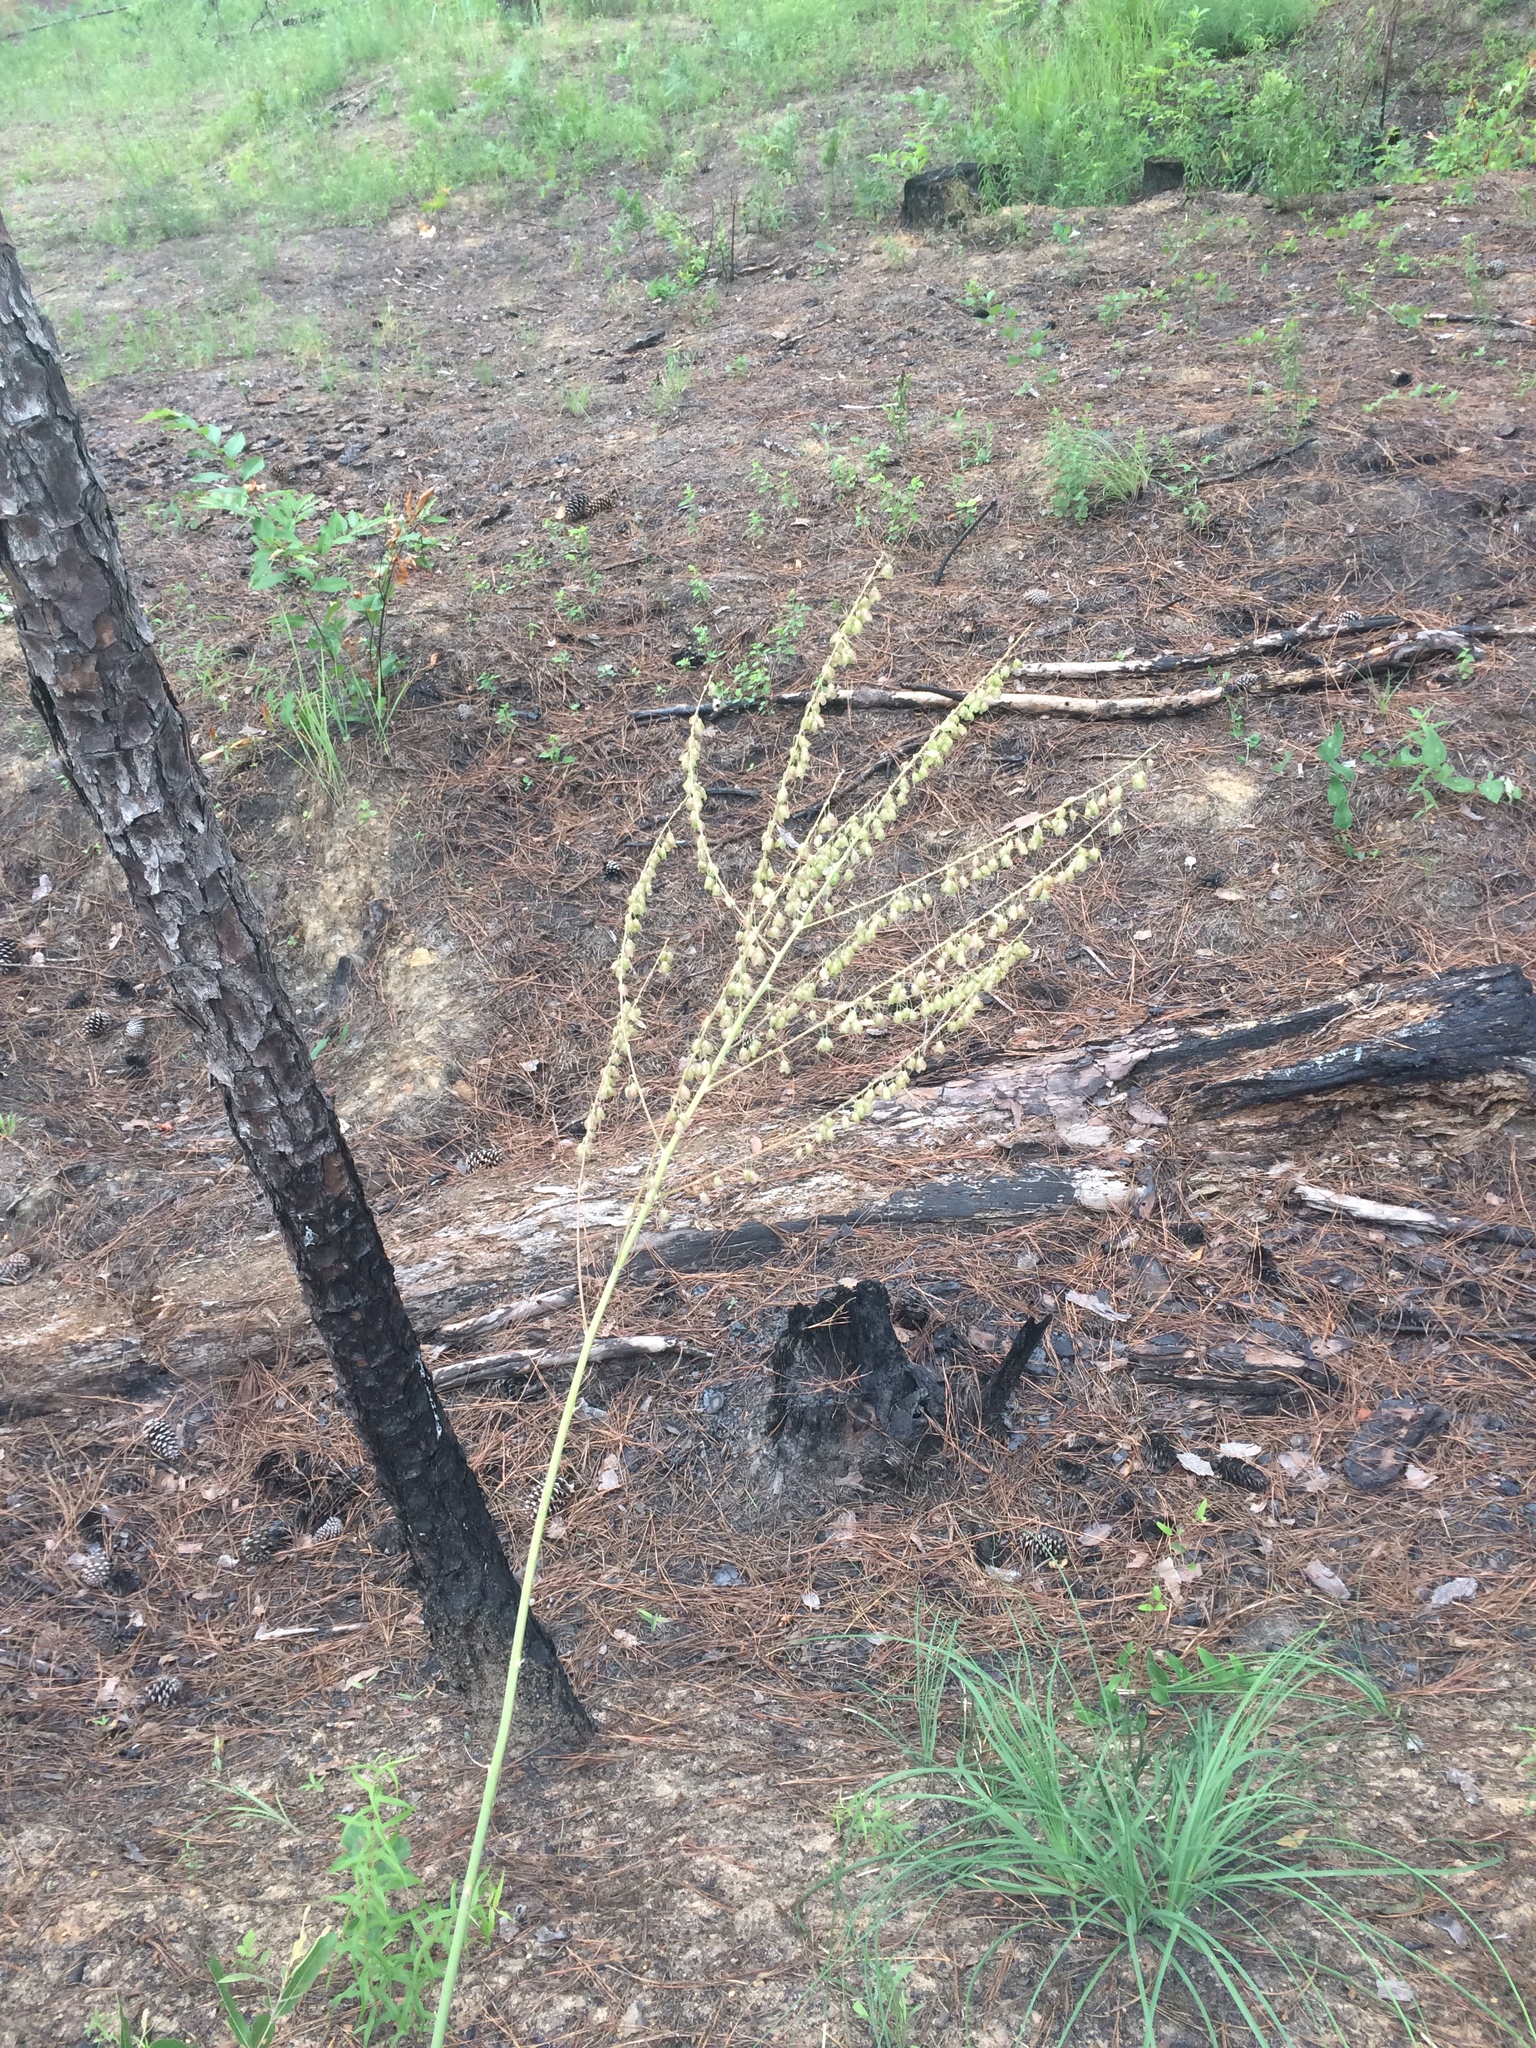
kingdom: Plantae
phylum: Tracheophyta
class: Liliopsida
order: Asparagales
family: Asparagaceae
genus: Nolina
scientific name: Nolina georgiana
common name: Georgia bear-grass
